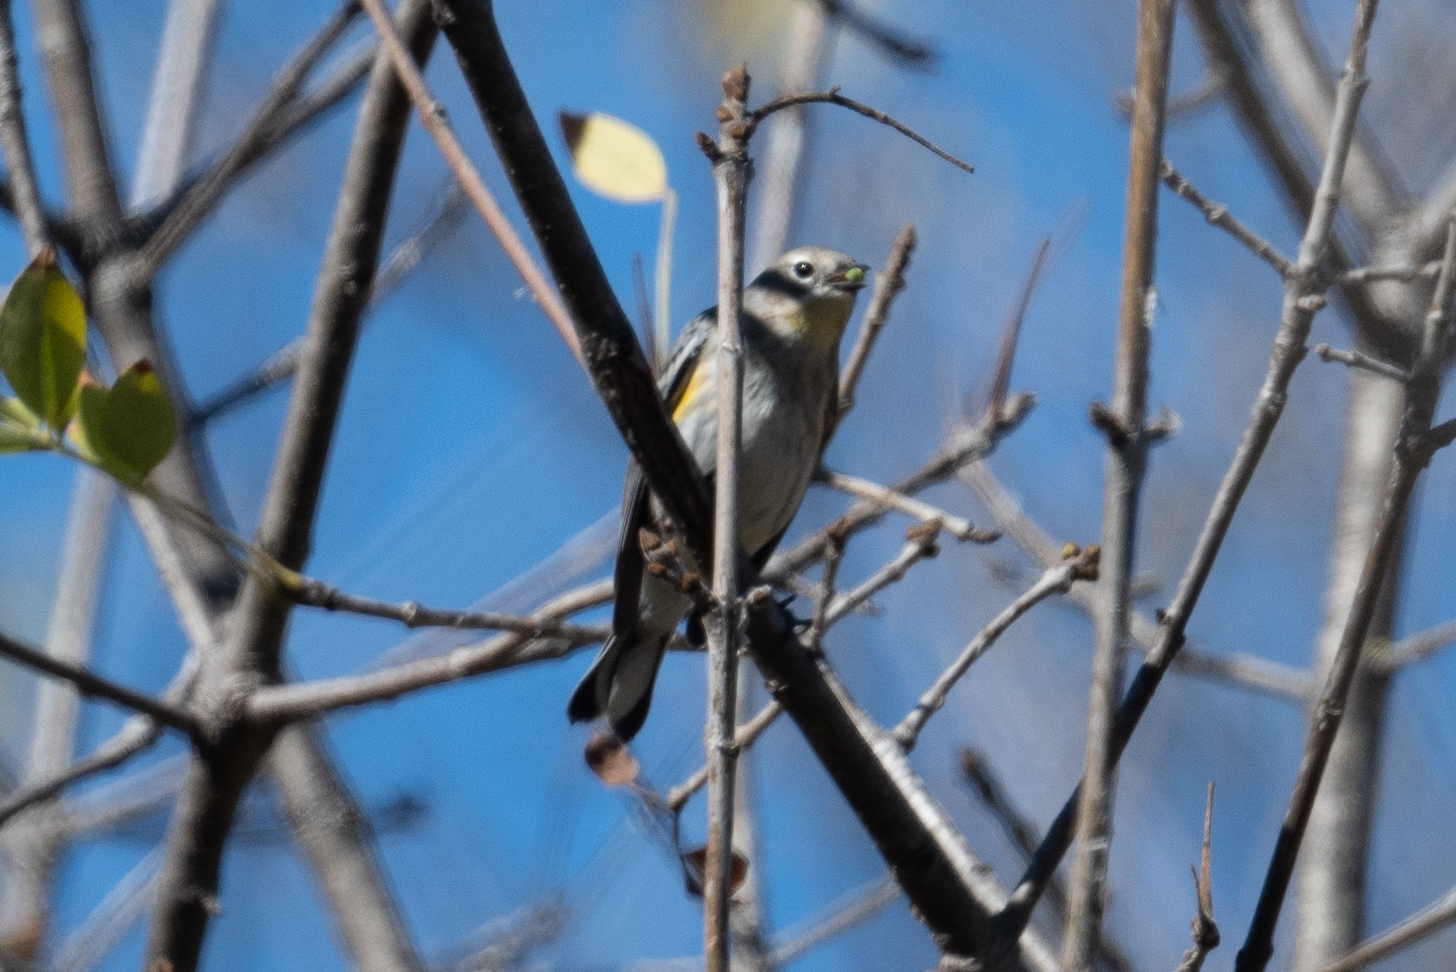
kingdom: Animalia
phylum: Chordata
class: Aves
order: Passeriformes
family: Parulidae
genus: Setophaga
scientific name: Setophaga coronata
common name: Myrtle warbler
